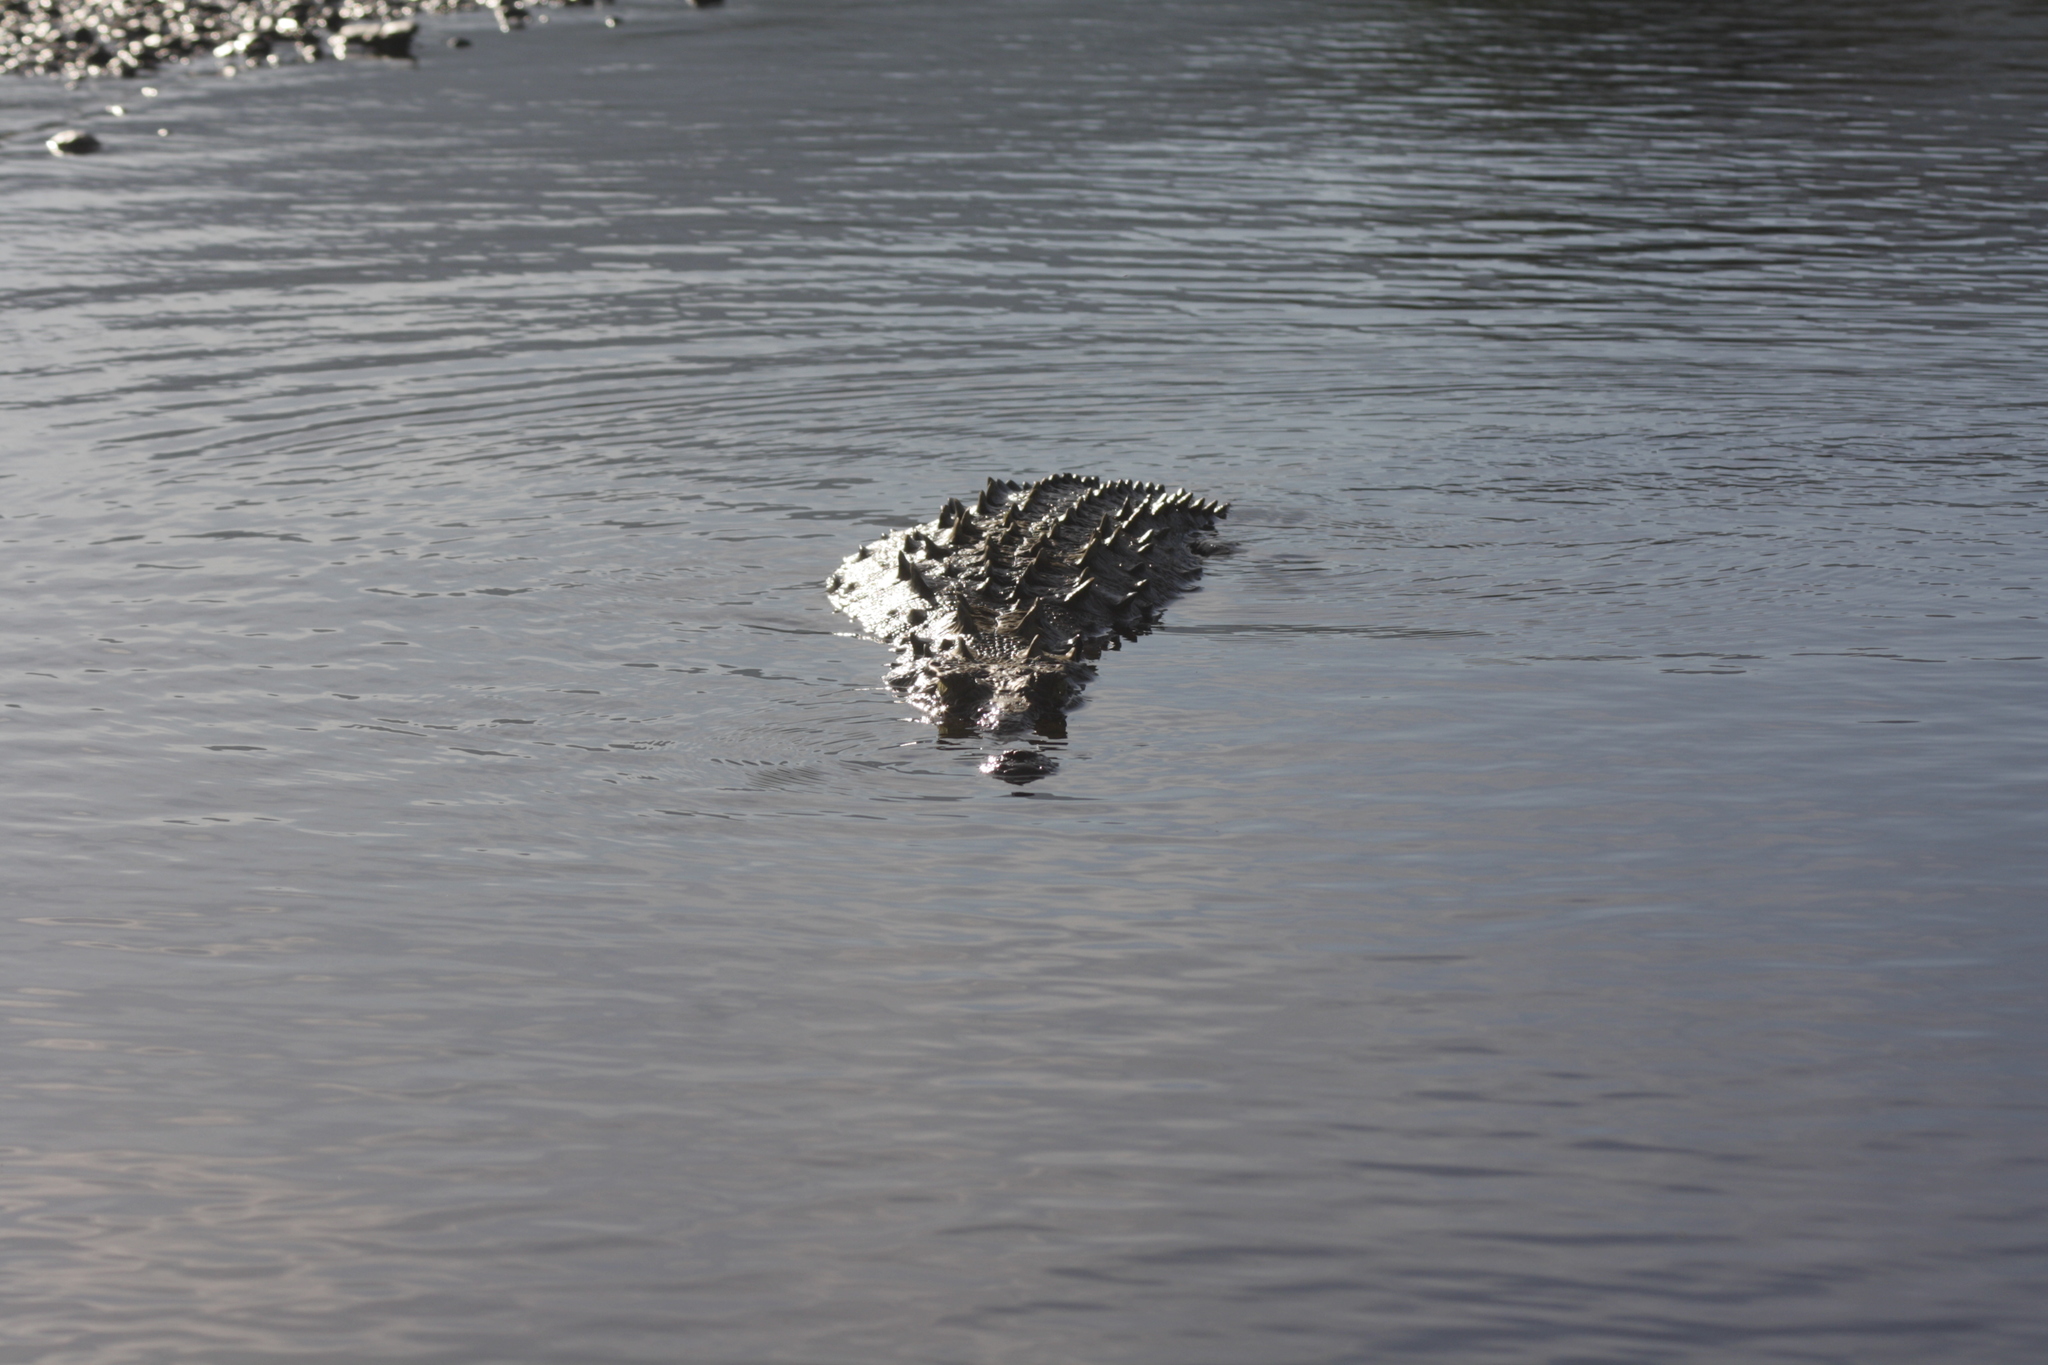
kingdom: Animalia
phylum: Chordata
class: Crocodylia
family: Crocodylidae
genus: Crocodylus
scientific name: Crocodylus acutus
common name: American crocodile
